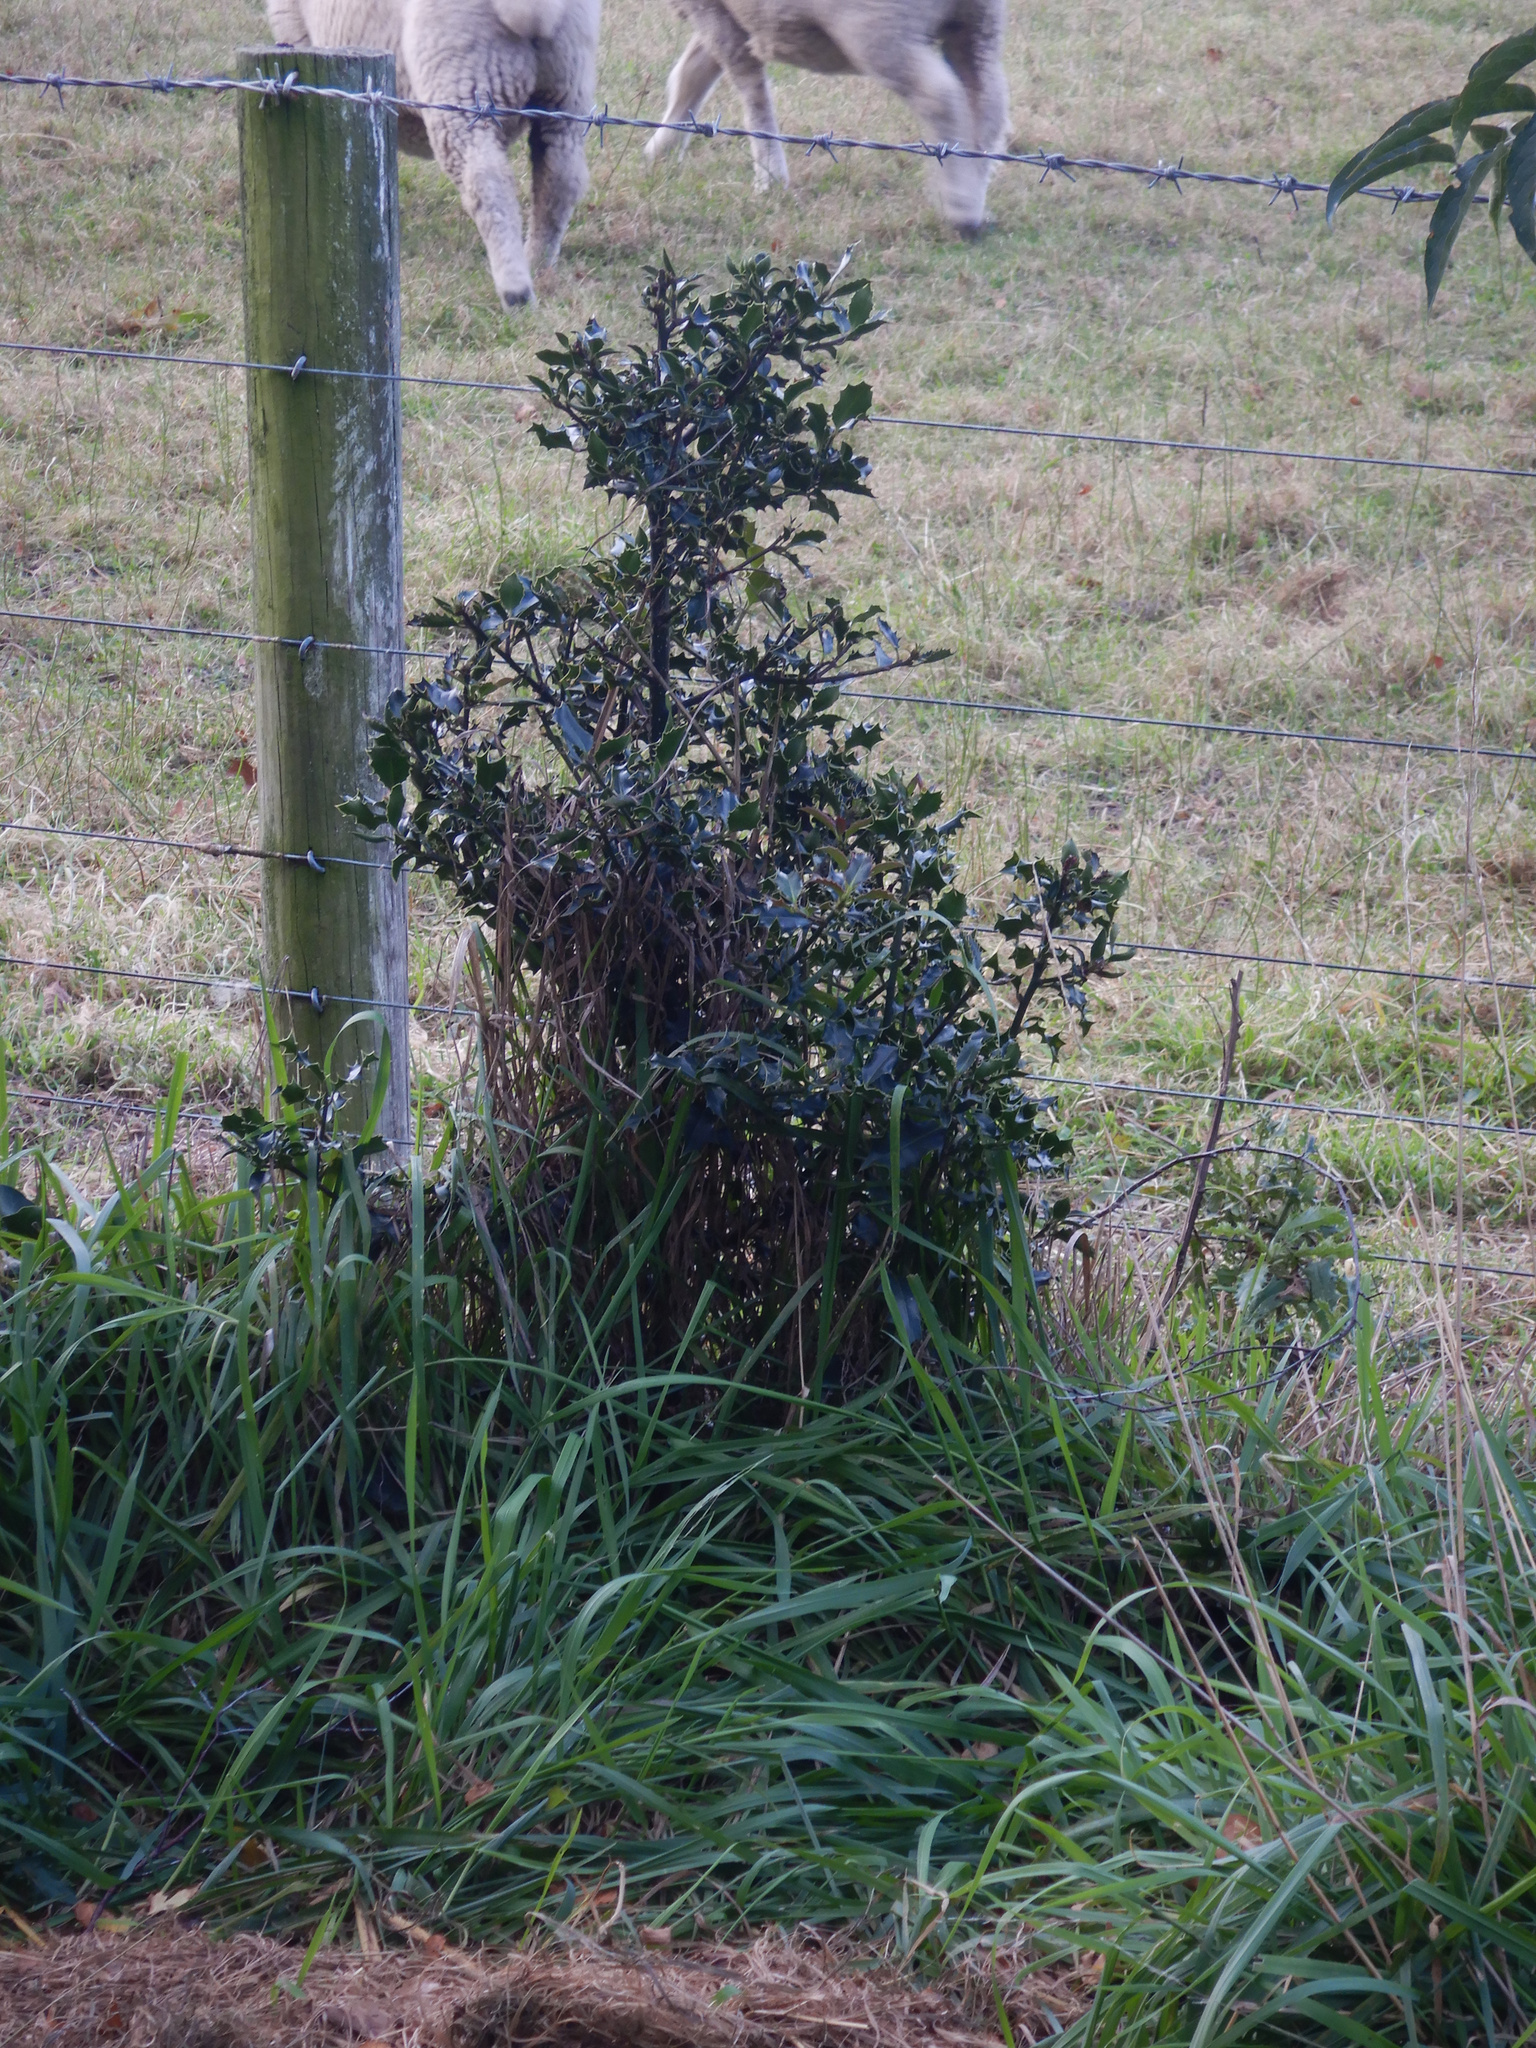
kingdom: Plantae
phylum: Tracheophyta
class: Magnoliopsida
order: Aquifoliales
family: Aquifoliaceae
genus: Ilex
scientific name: Ilex aquifolium
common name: English holly
